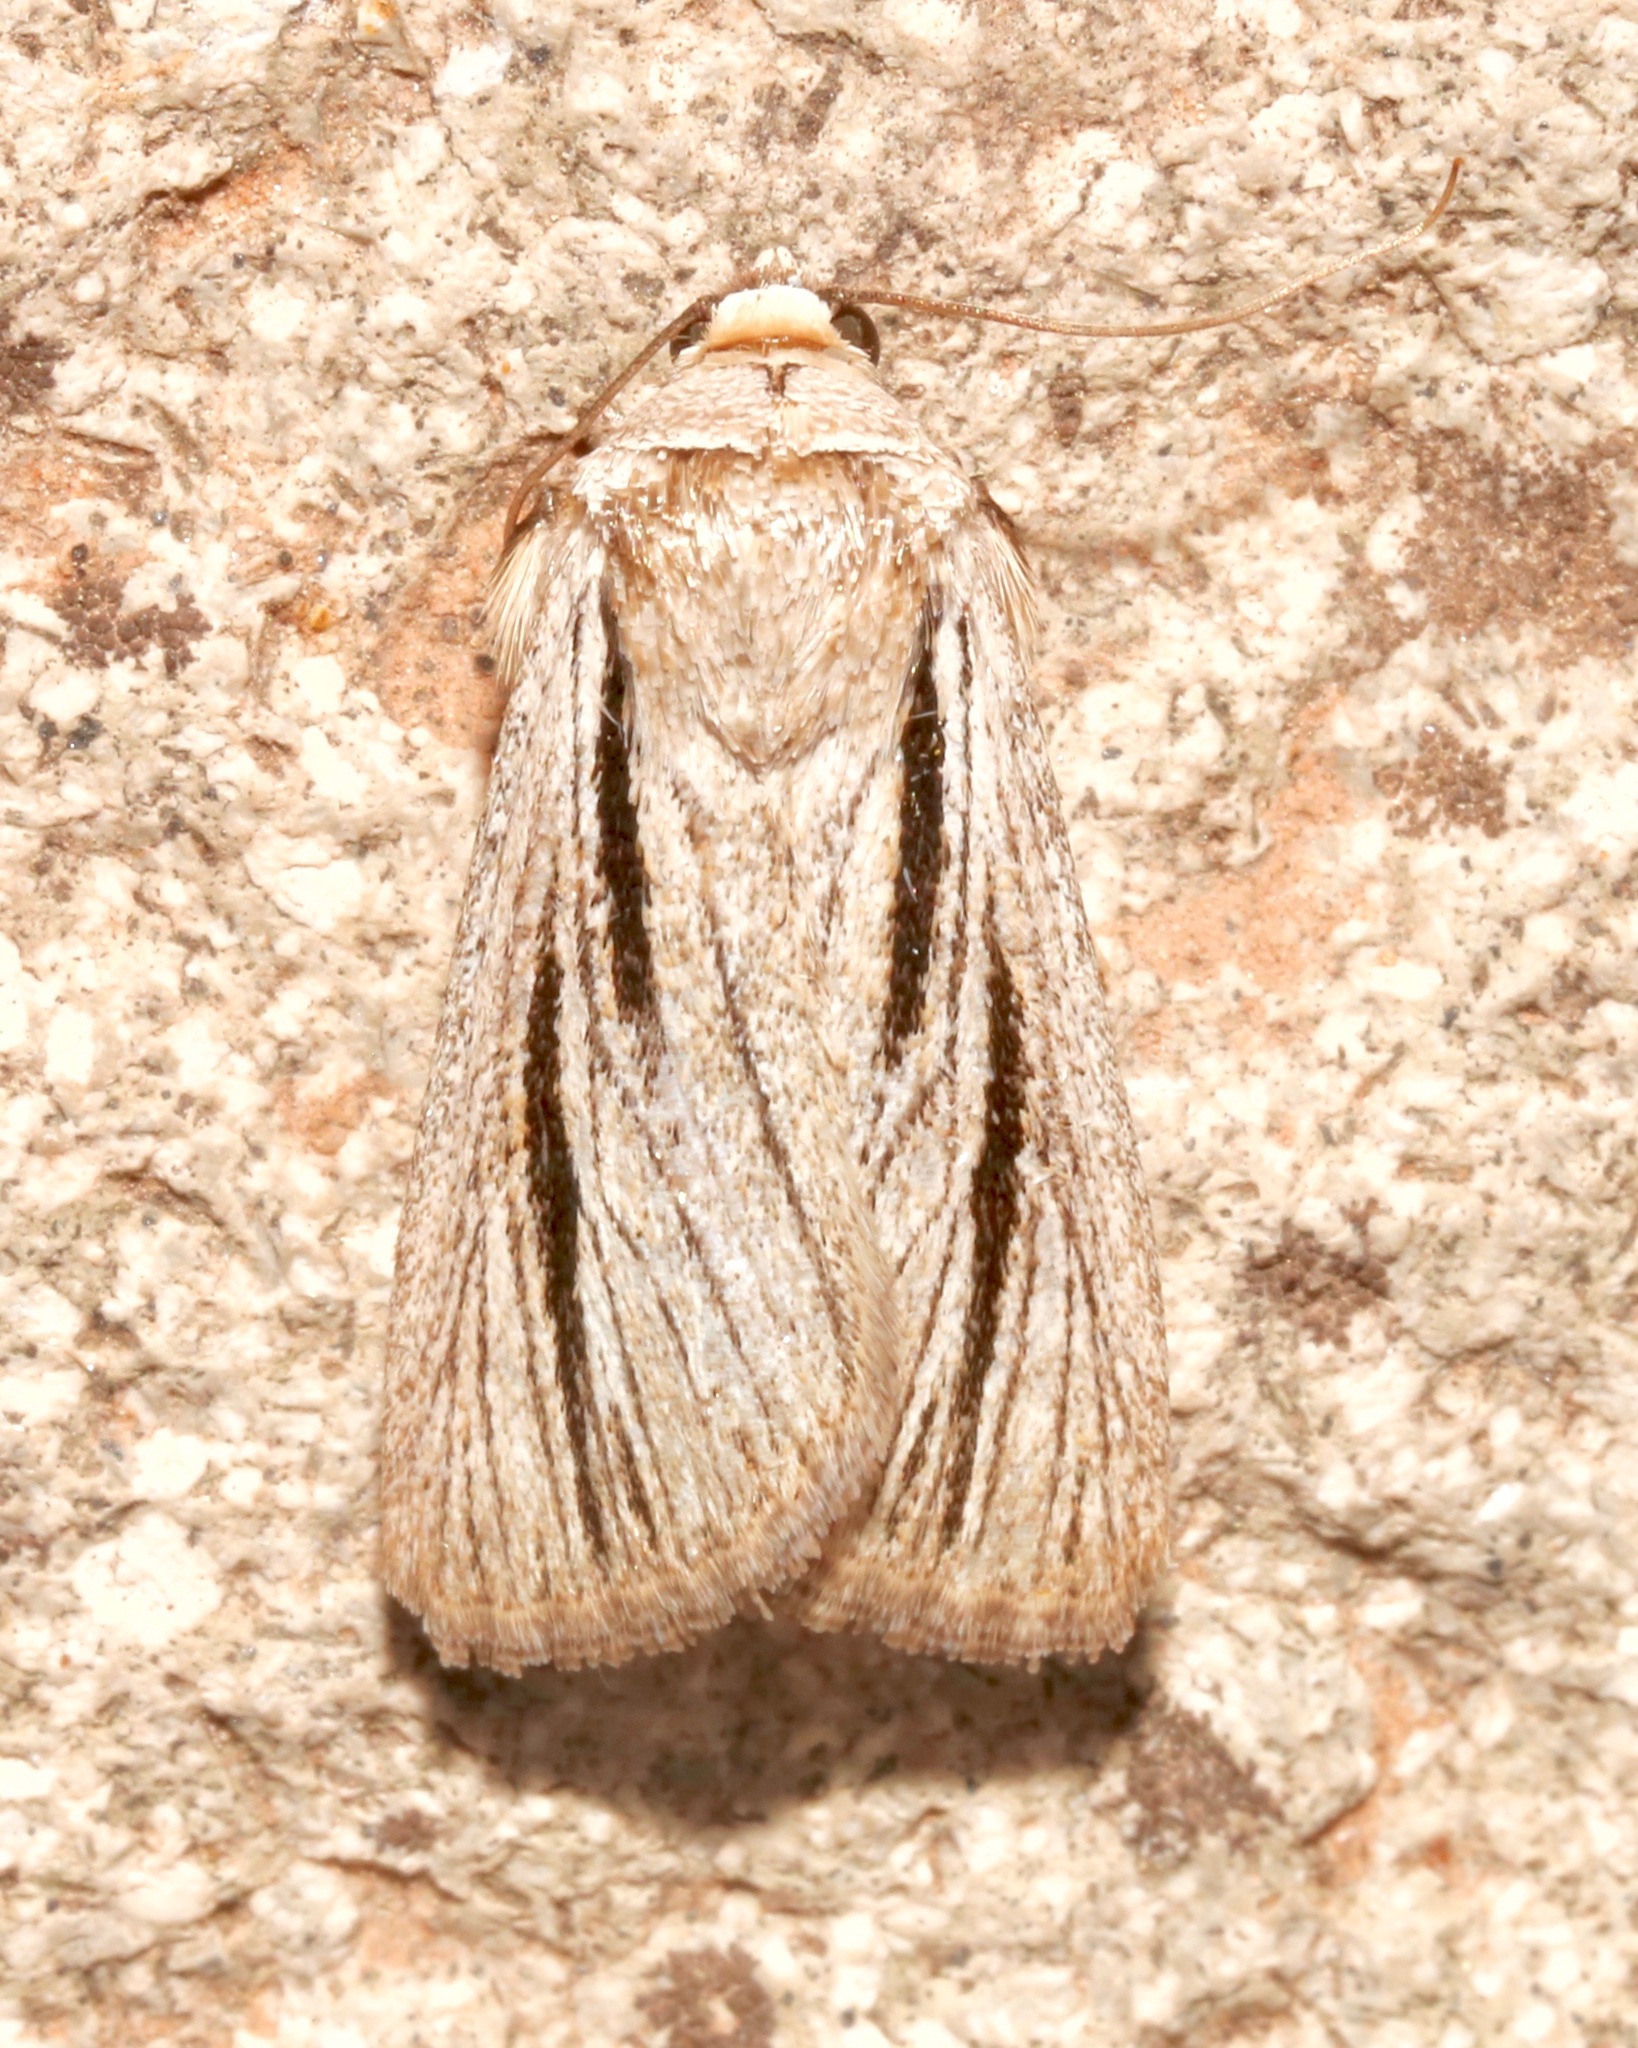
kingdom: Animalia
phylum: Arthropoda
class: Insecta
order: Lepidoptera
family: Noctuidae
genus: Sympistis
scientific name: Sympistis nigrocaput
